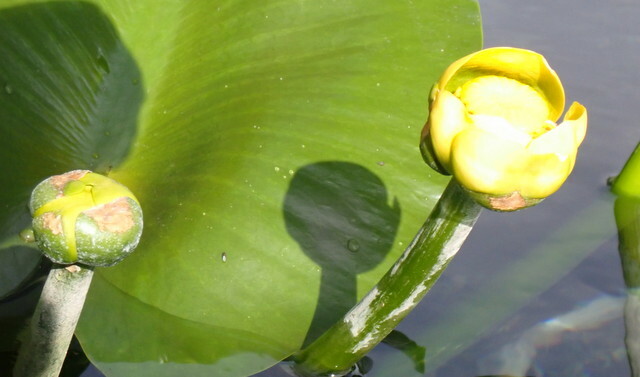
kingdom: Plantae
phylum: Tracheophyta
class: Magnoliopsida
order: Nymphaeales
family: Nymphaeaceae
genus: Nuphar
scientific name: Nuphar advena
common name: Spatter-dock
